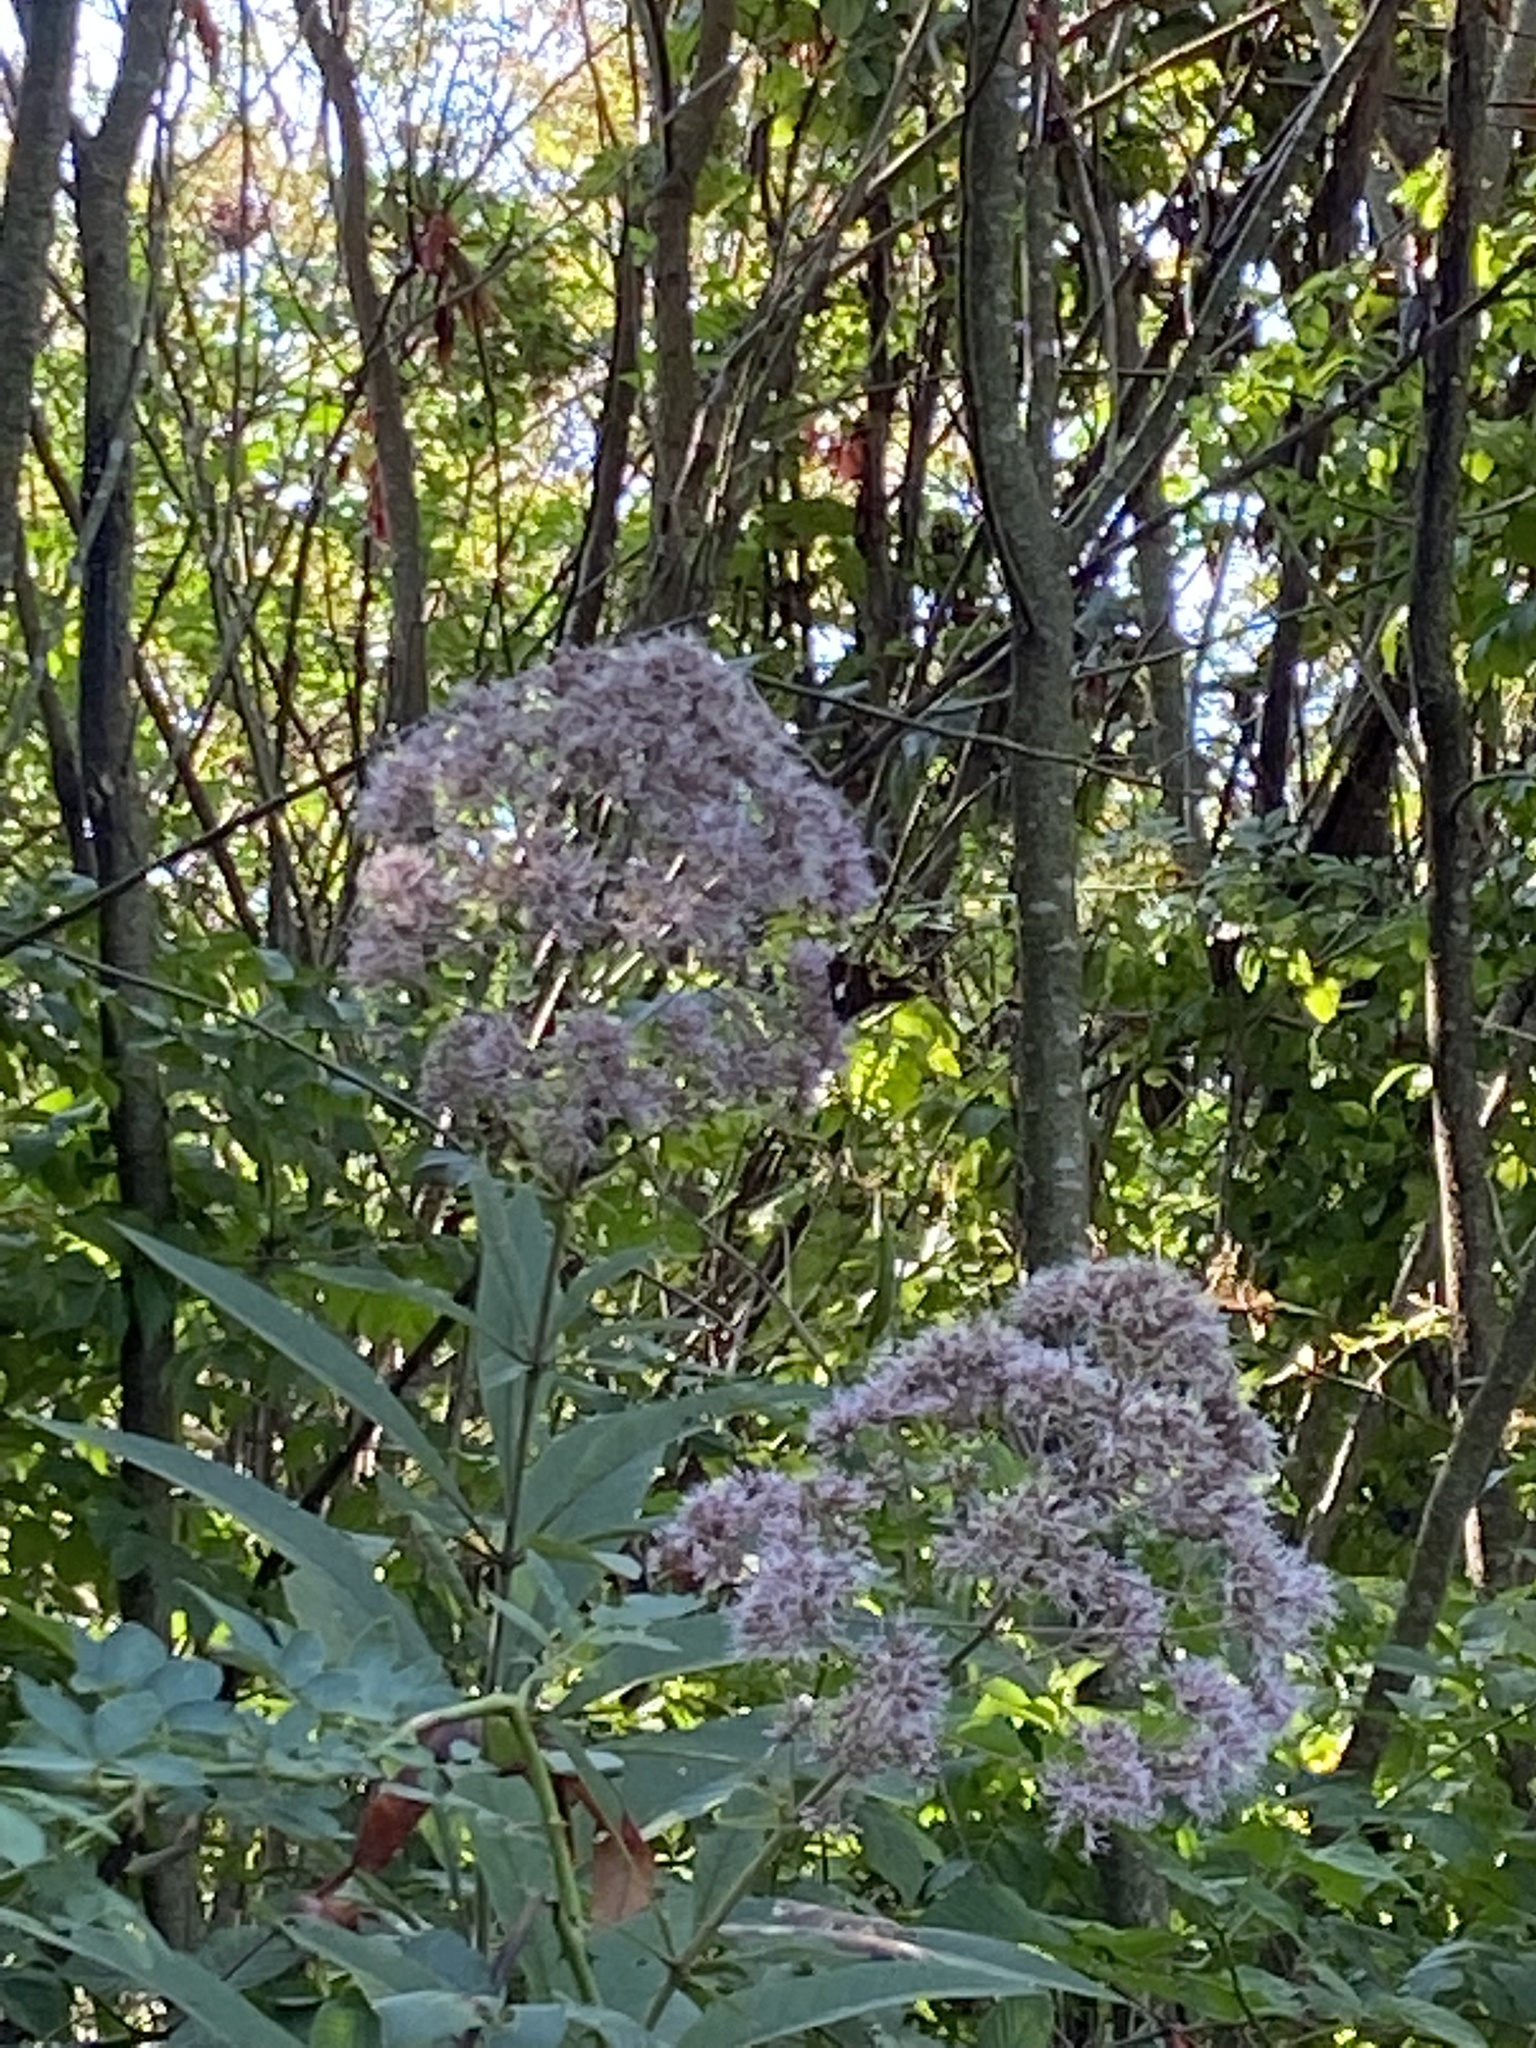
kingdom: Plantae
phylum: Tracheophyta
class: Magnoliopsida
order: Asterales
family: Asteraceae
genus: Eutrochium
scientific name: Eutrochium fistulosum
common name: Trumpetweed
